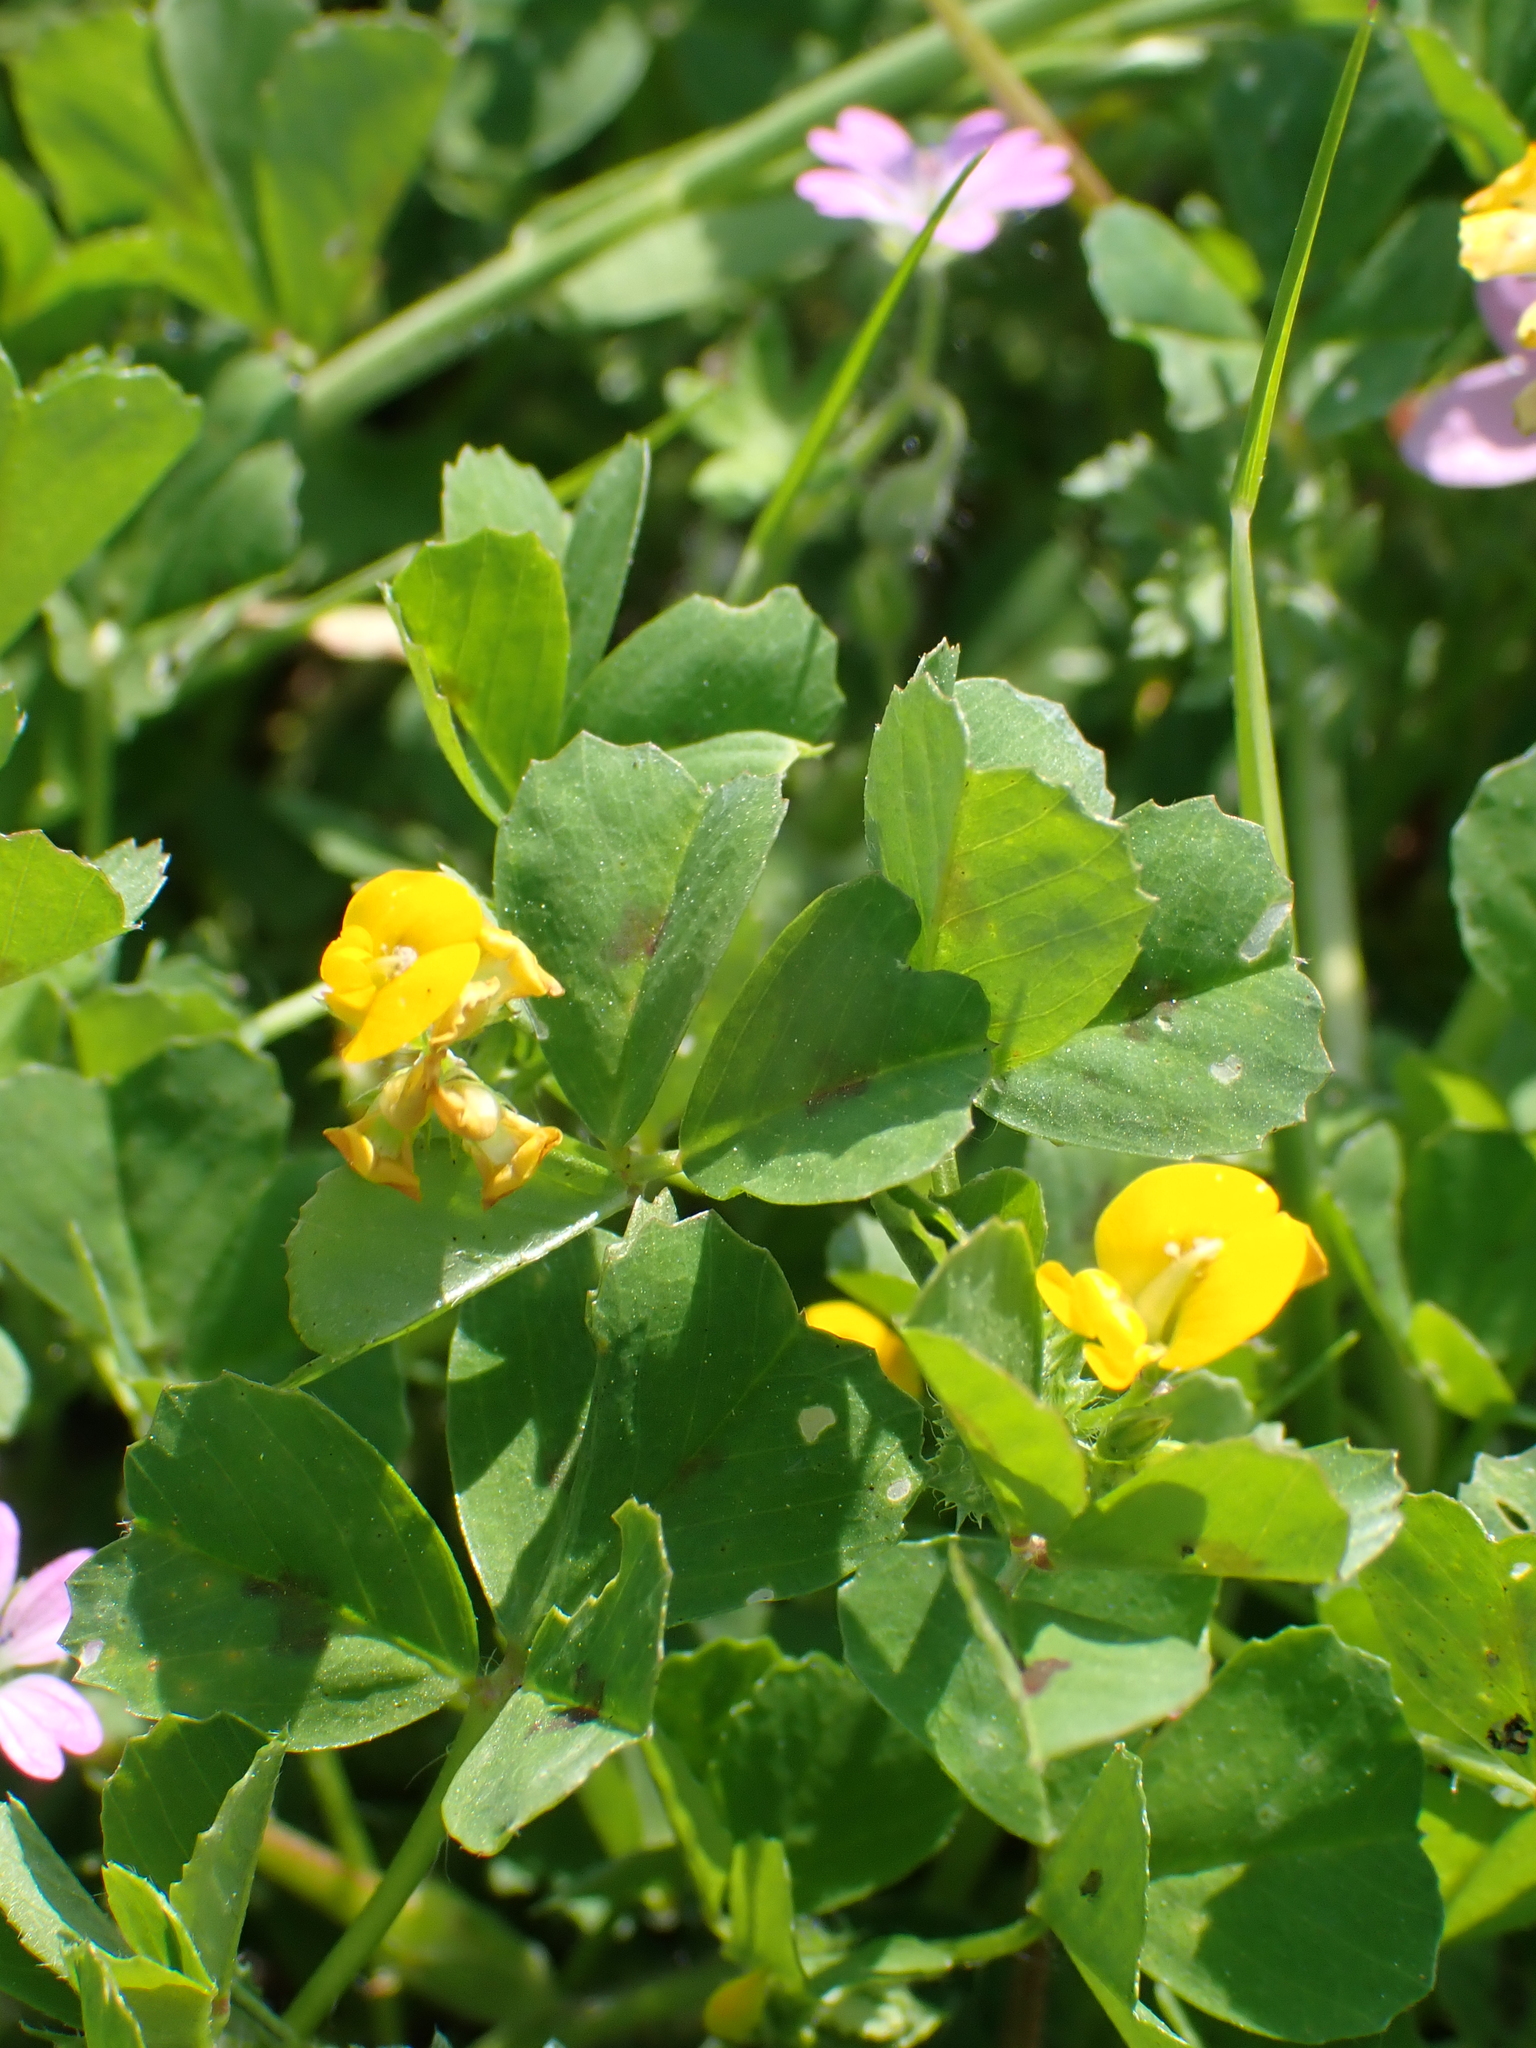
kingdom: Plantae
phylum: Tracheophyta
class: Magnoliopsida
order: Fabales
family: Fabaceae
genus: Medicago
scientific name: Medicago arabica
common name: Spotted medick
